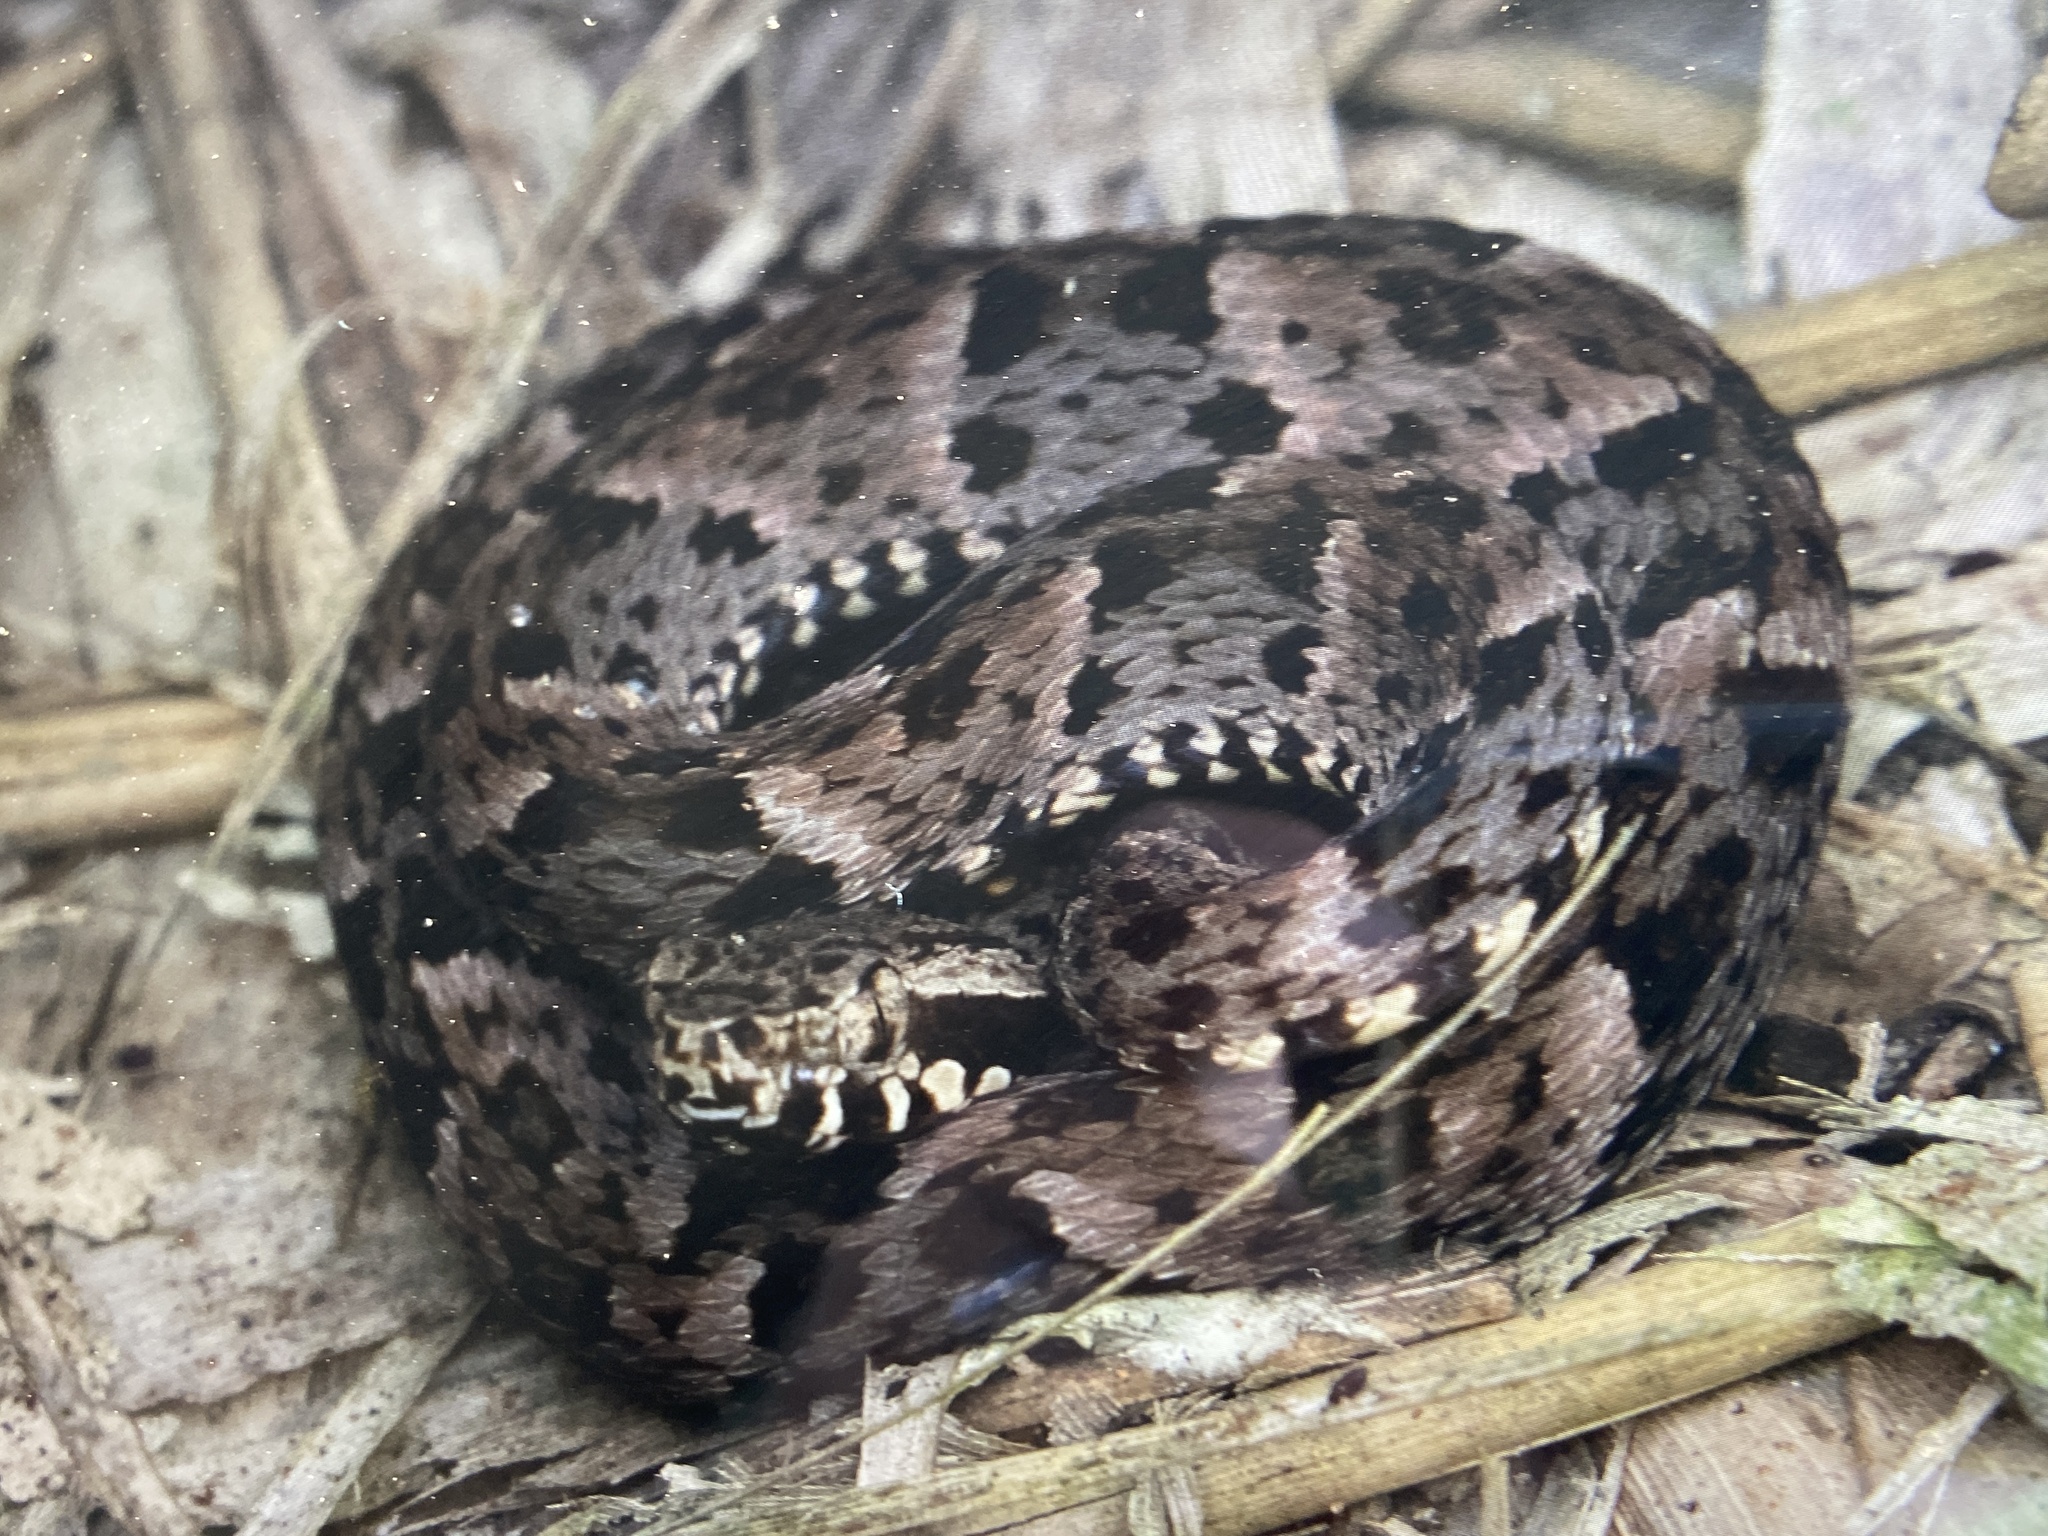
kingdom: Animalia
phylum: Chordata
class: Squamata
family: Viperidae
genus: Bothrops
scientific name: Bothrops atrox
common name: Common lancehead
